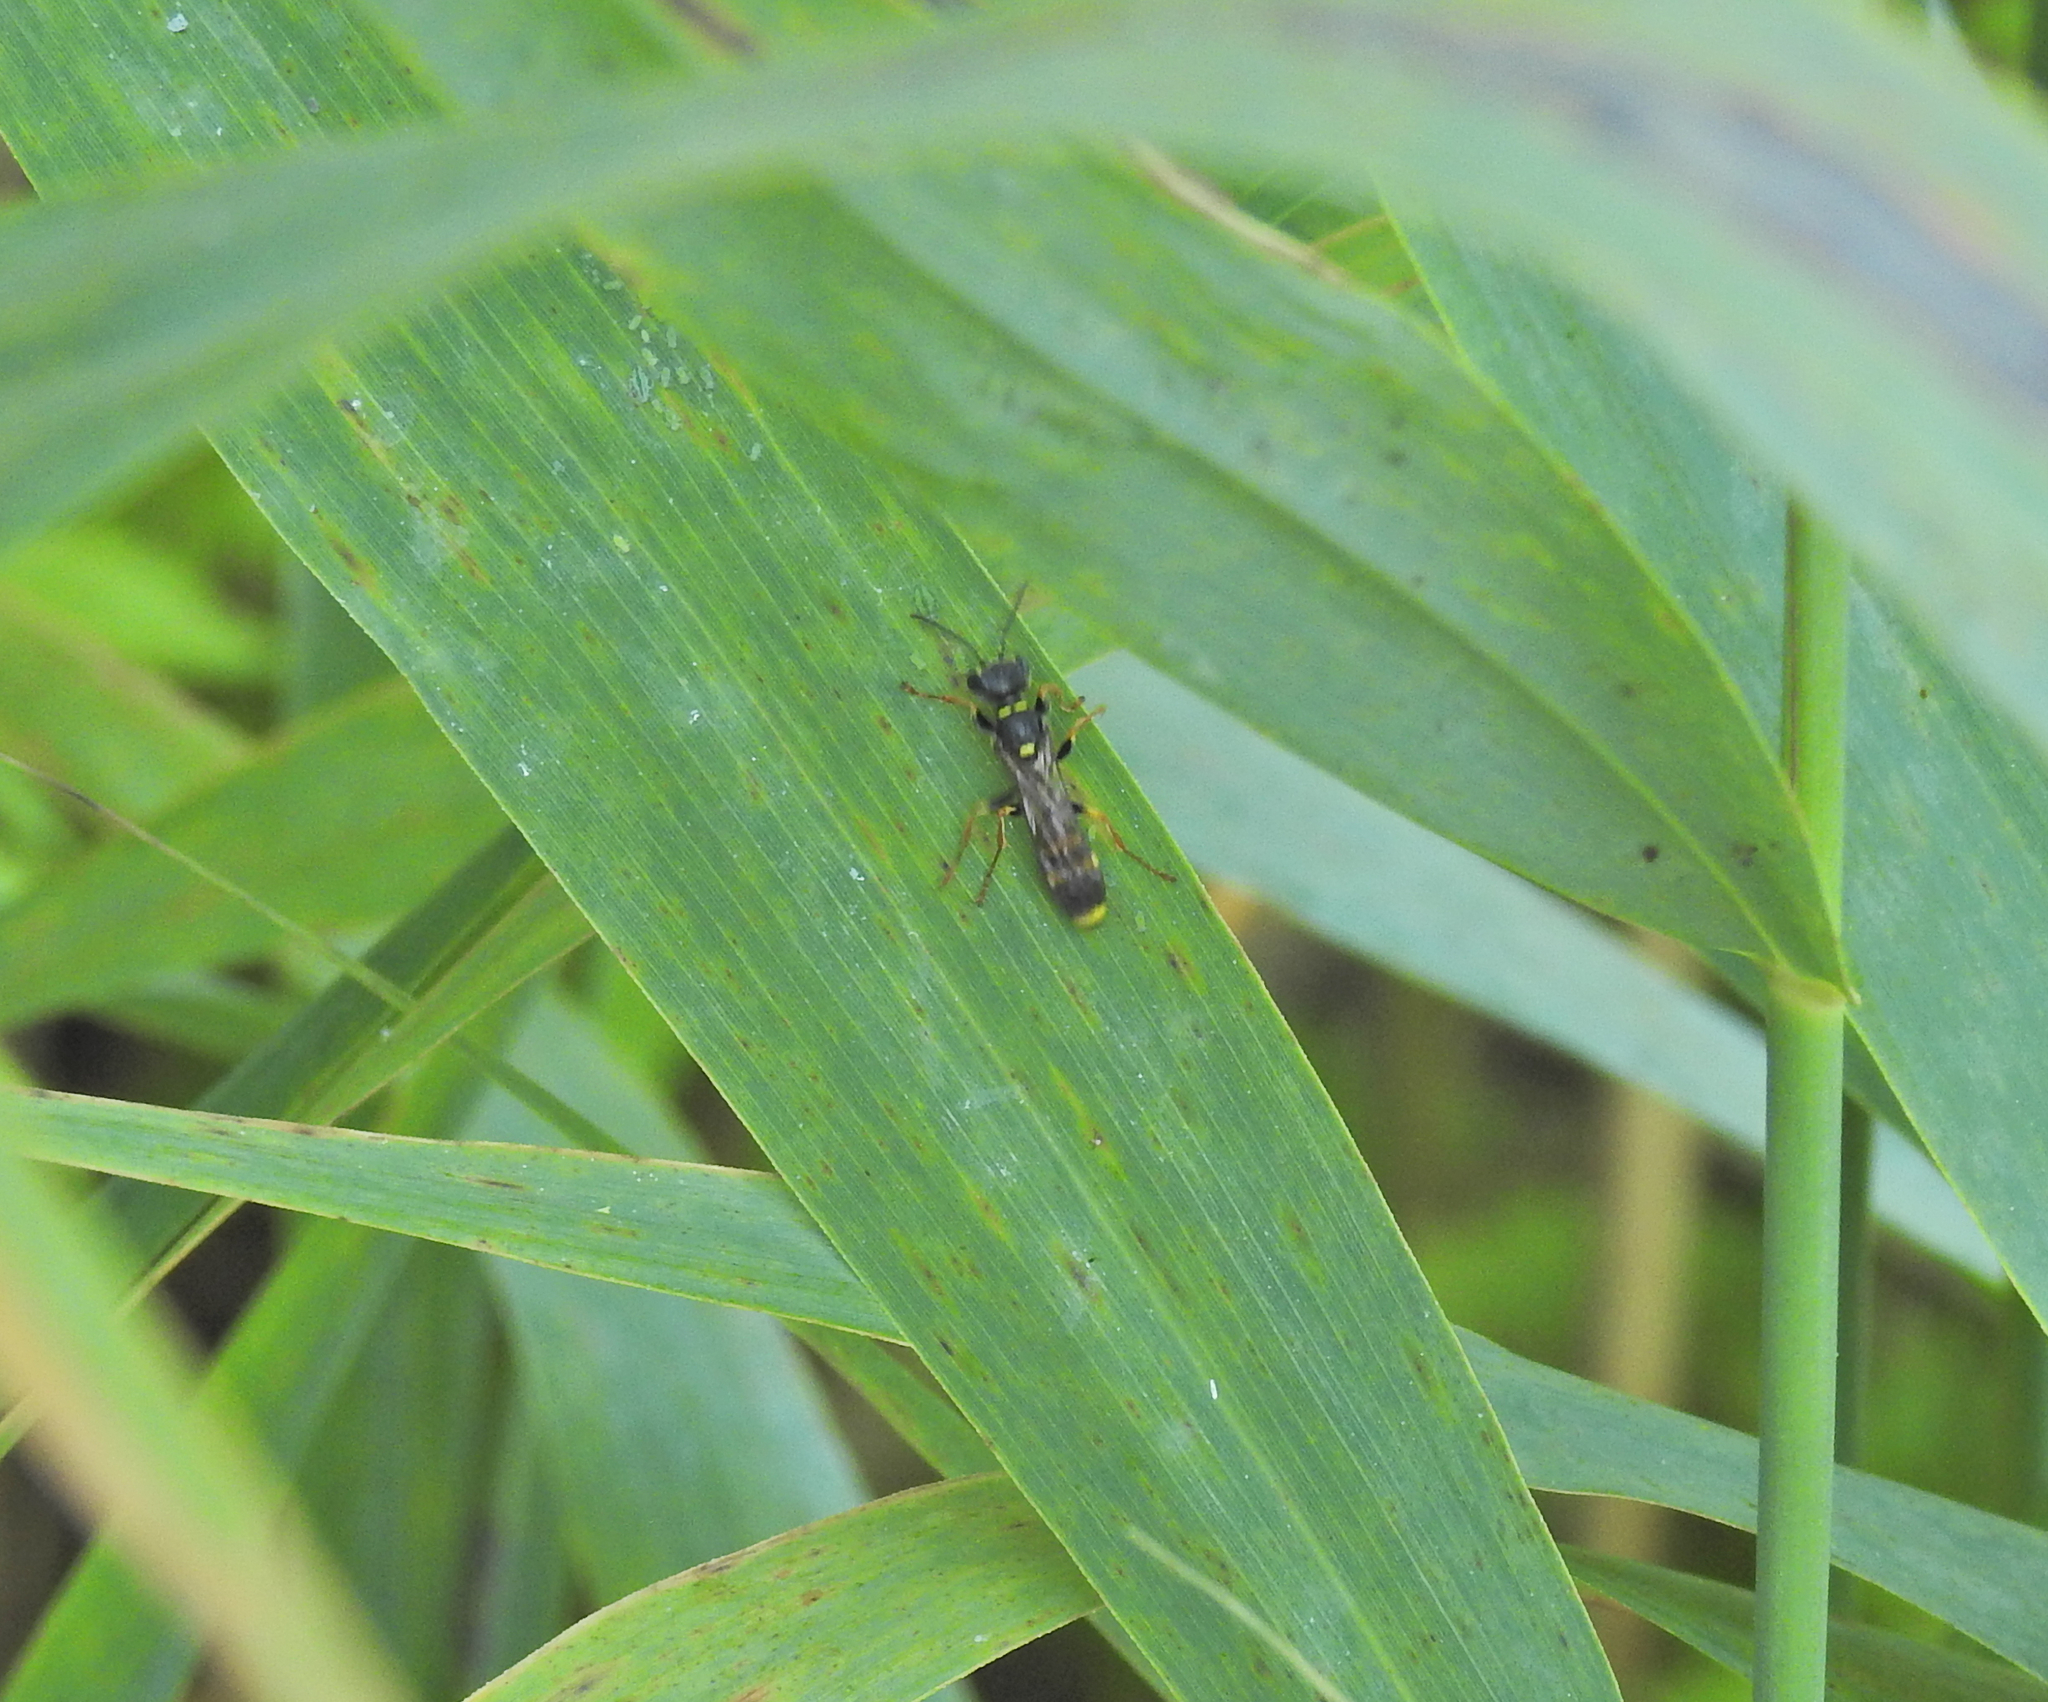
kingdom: Animalia
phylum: Arthropoda
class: Insecta
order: Hymenoptera
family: Crabronidae
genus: Mellinus
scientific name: Mellinus arvensis
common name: Field digger wasp
